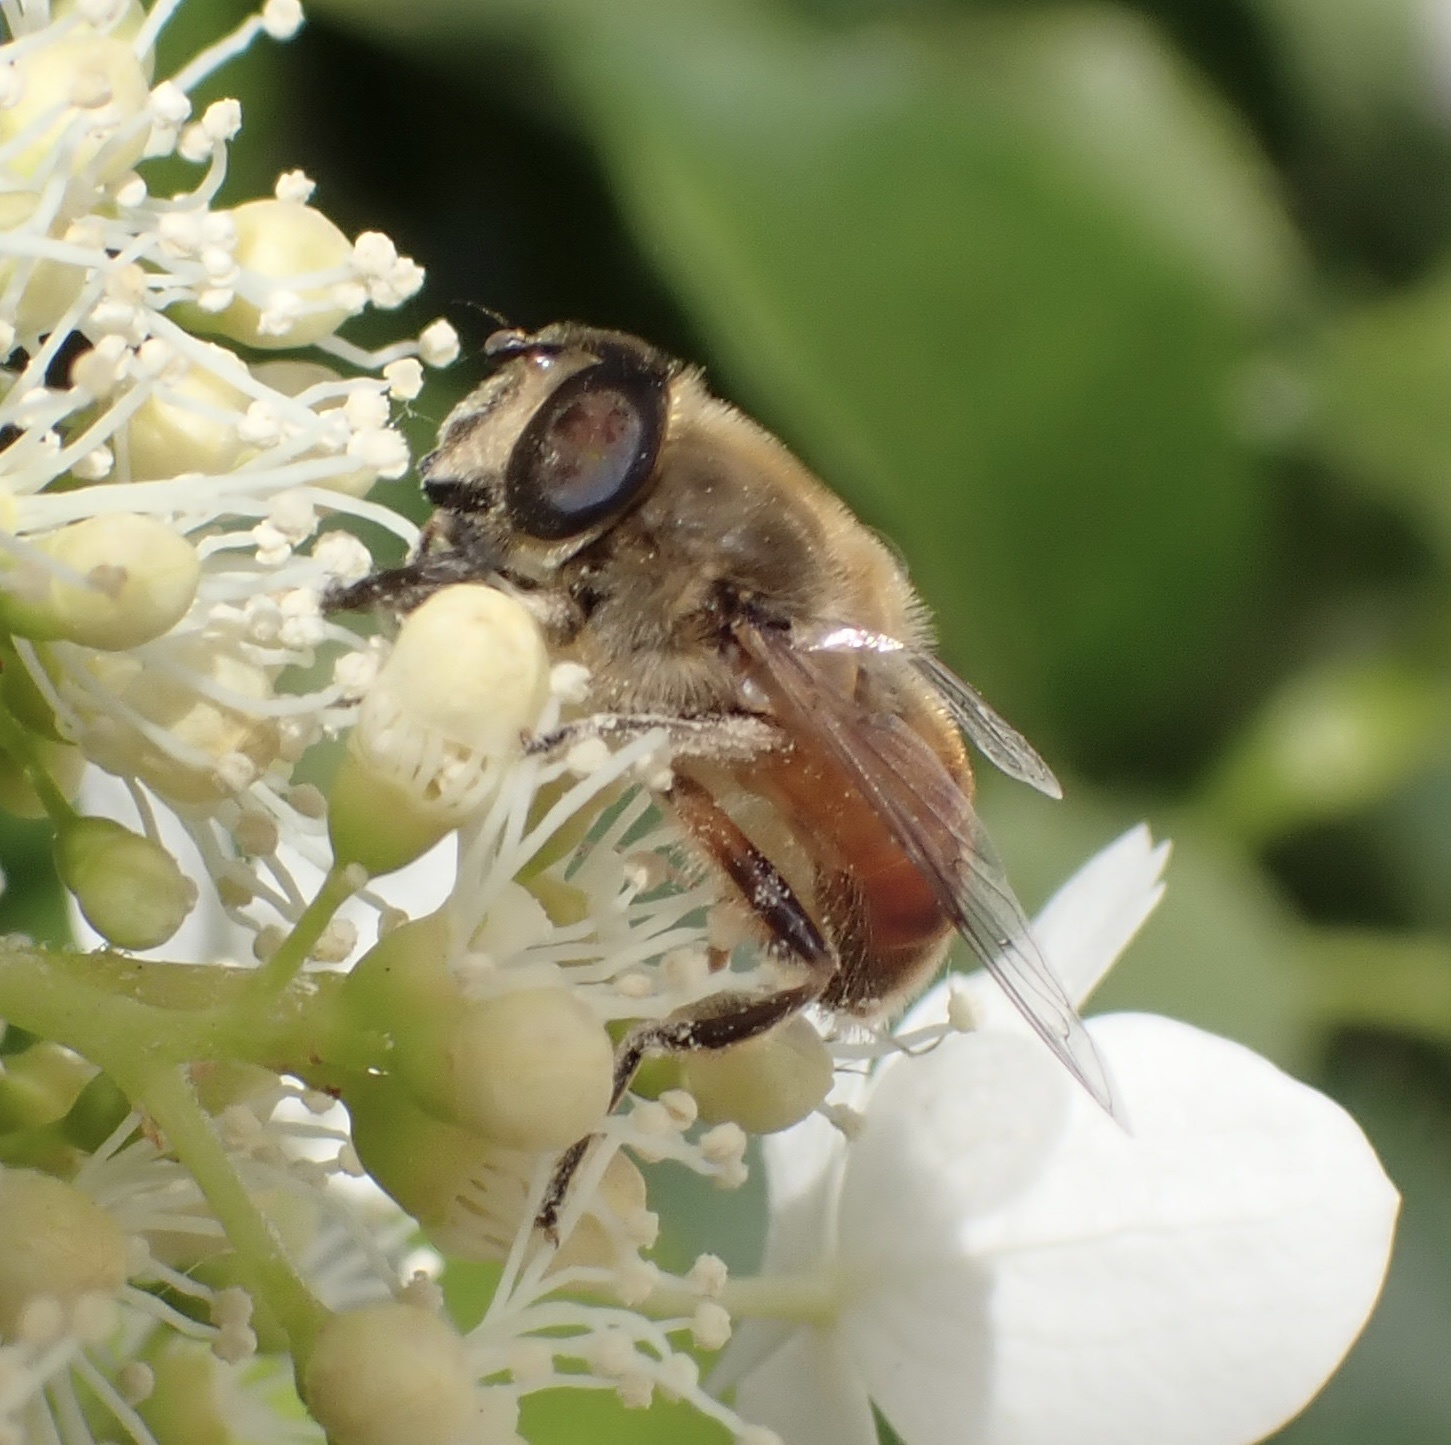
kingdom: Animalia
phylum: Arthropoda
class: Insecta
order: Diptera
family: Syrphidae
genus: Eristalis
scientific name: Eristalis tenax
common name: Drone fly
